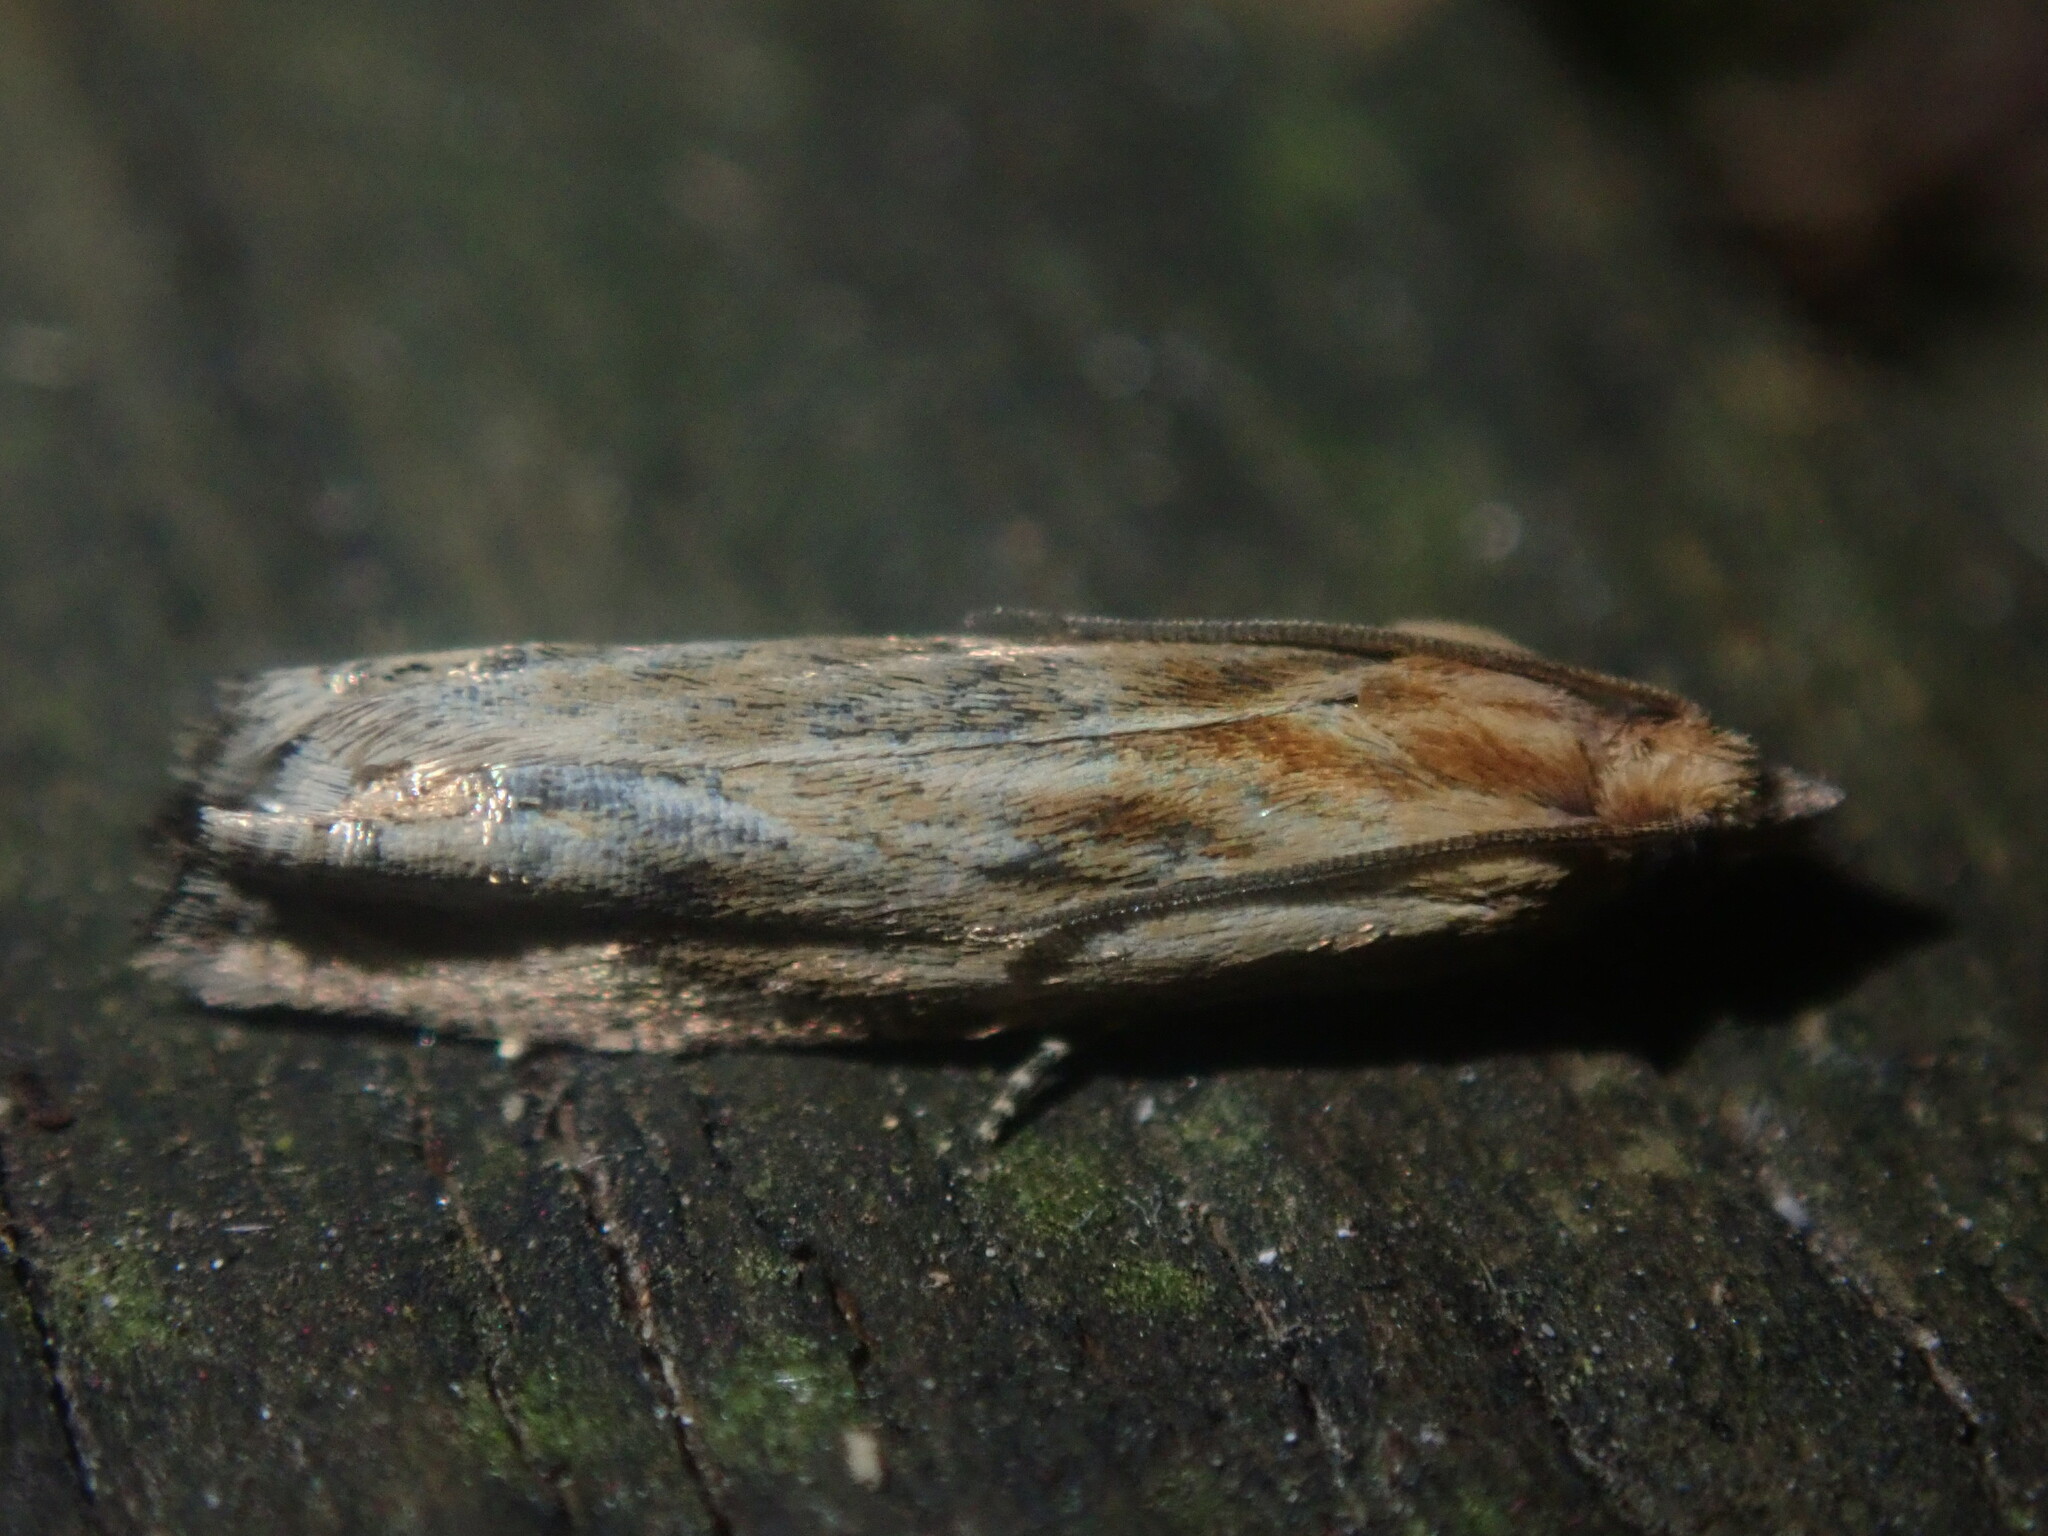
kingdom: Animalia
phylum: Arthropoda
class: Insecta
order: Lepidoptera
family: Tortricidae
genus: Eucosma
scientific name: Eucosma cana
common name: Hoary belle
